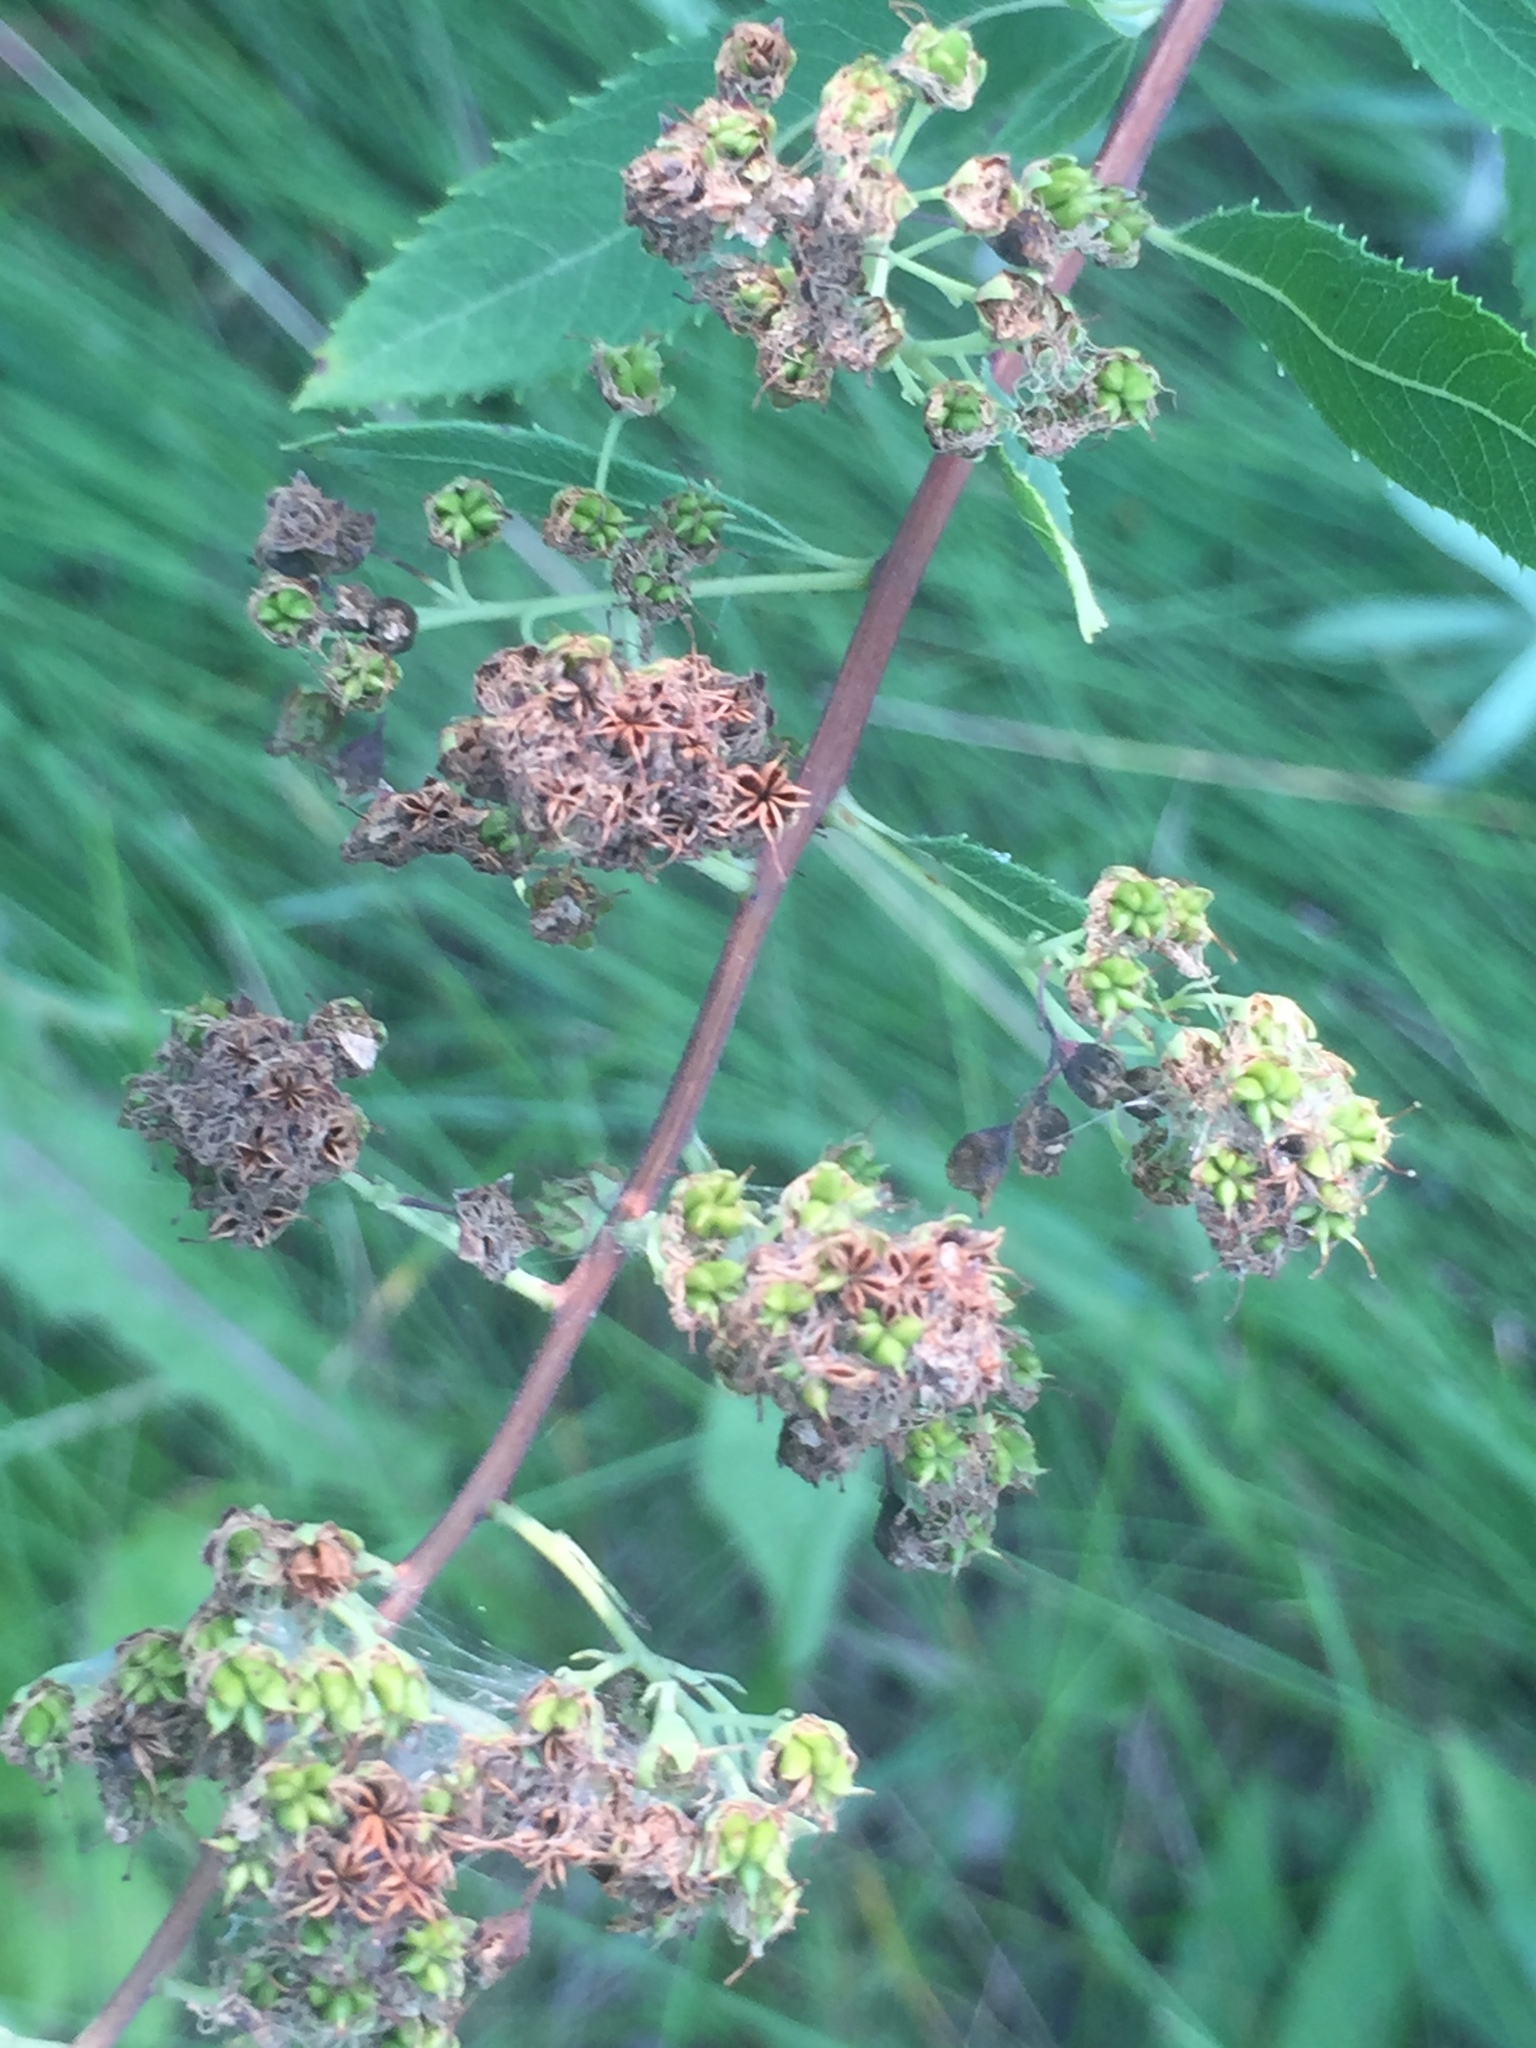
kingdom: Plantae
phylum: Tracheophyta
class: Magnoliopsida
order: Rosales
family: Rosaceae
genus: Spiraea
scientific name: Spiraea alba
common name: Pale bridewort
